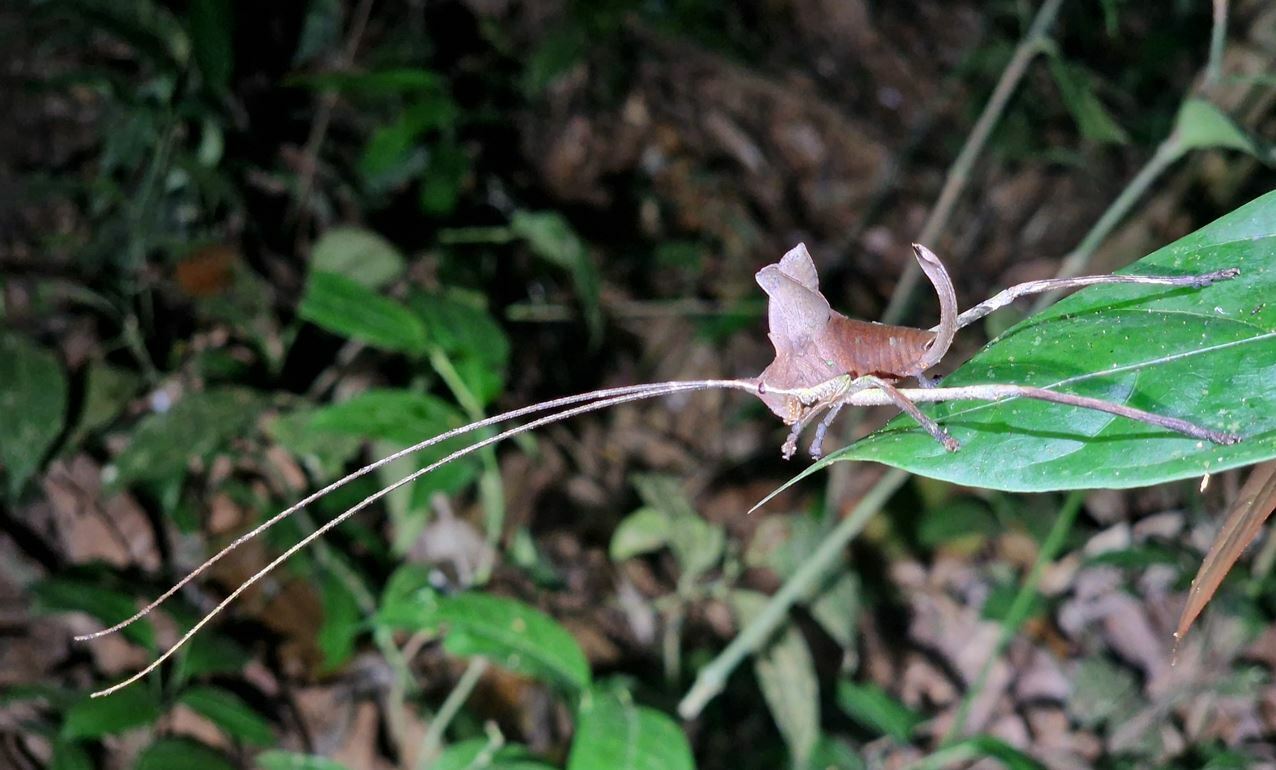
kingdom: Animalia
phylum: Arthropoda
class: Insecta
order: Orthoptera
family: Tettigoniidae
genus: Pterochroza
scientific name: Pterochroza ocellata
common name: Peacock katydid
